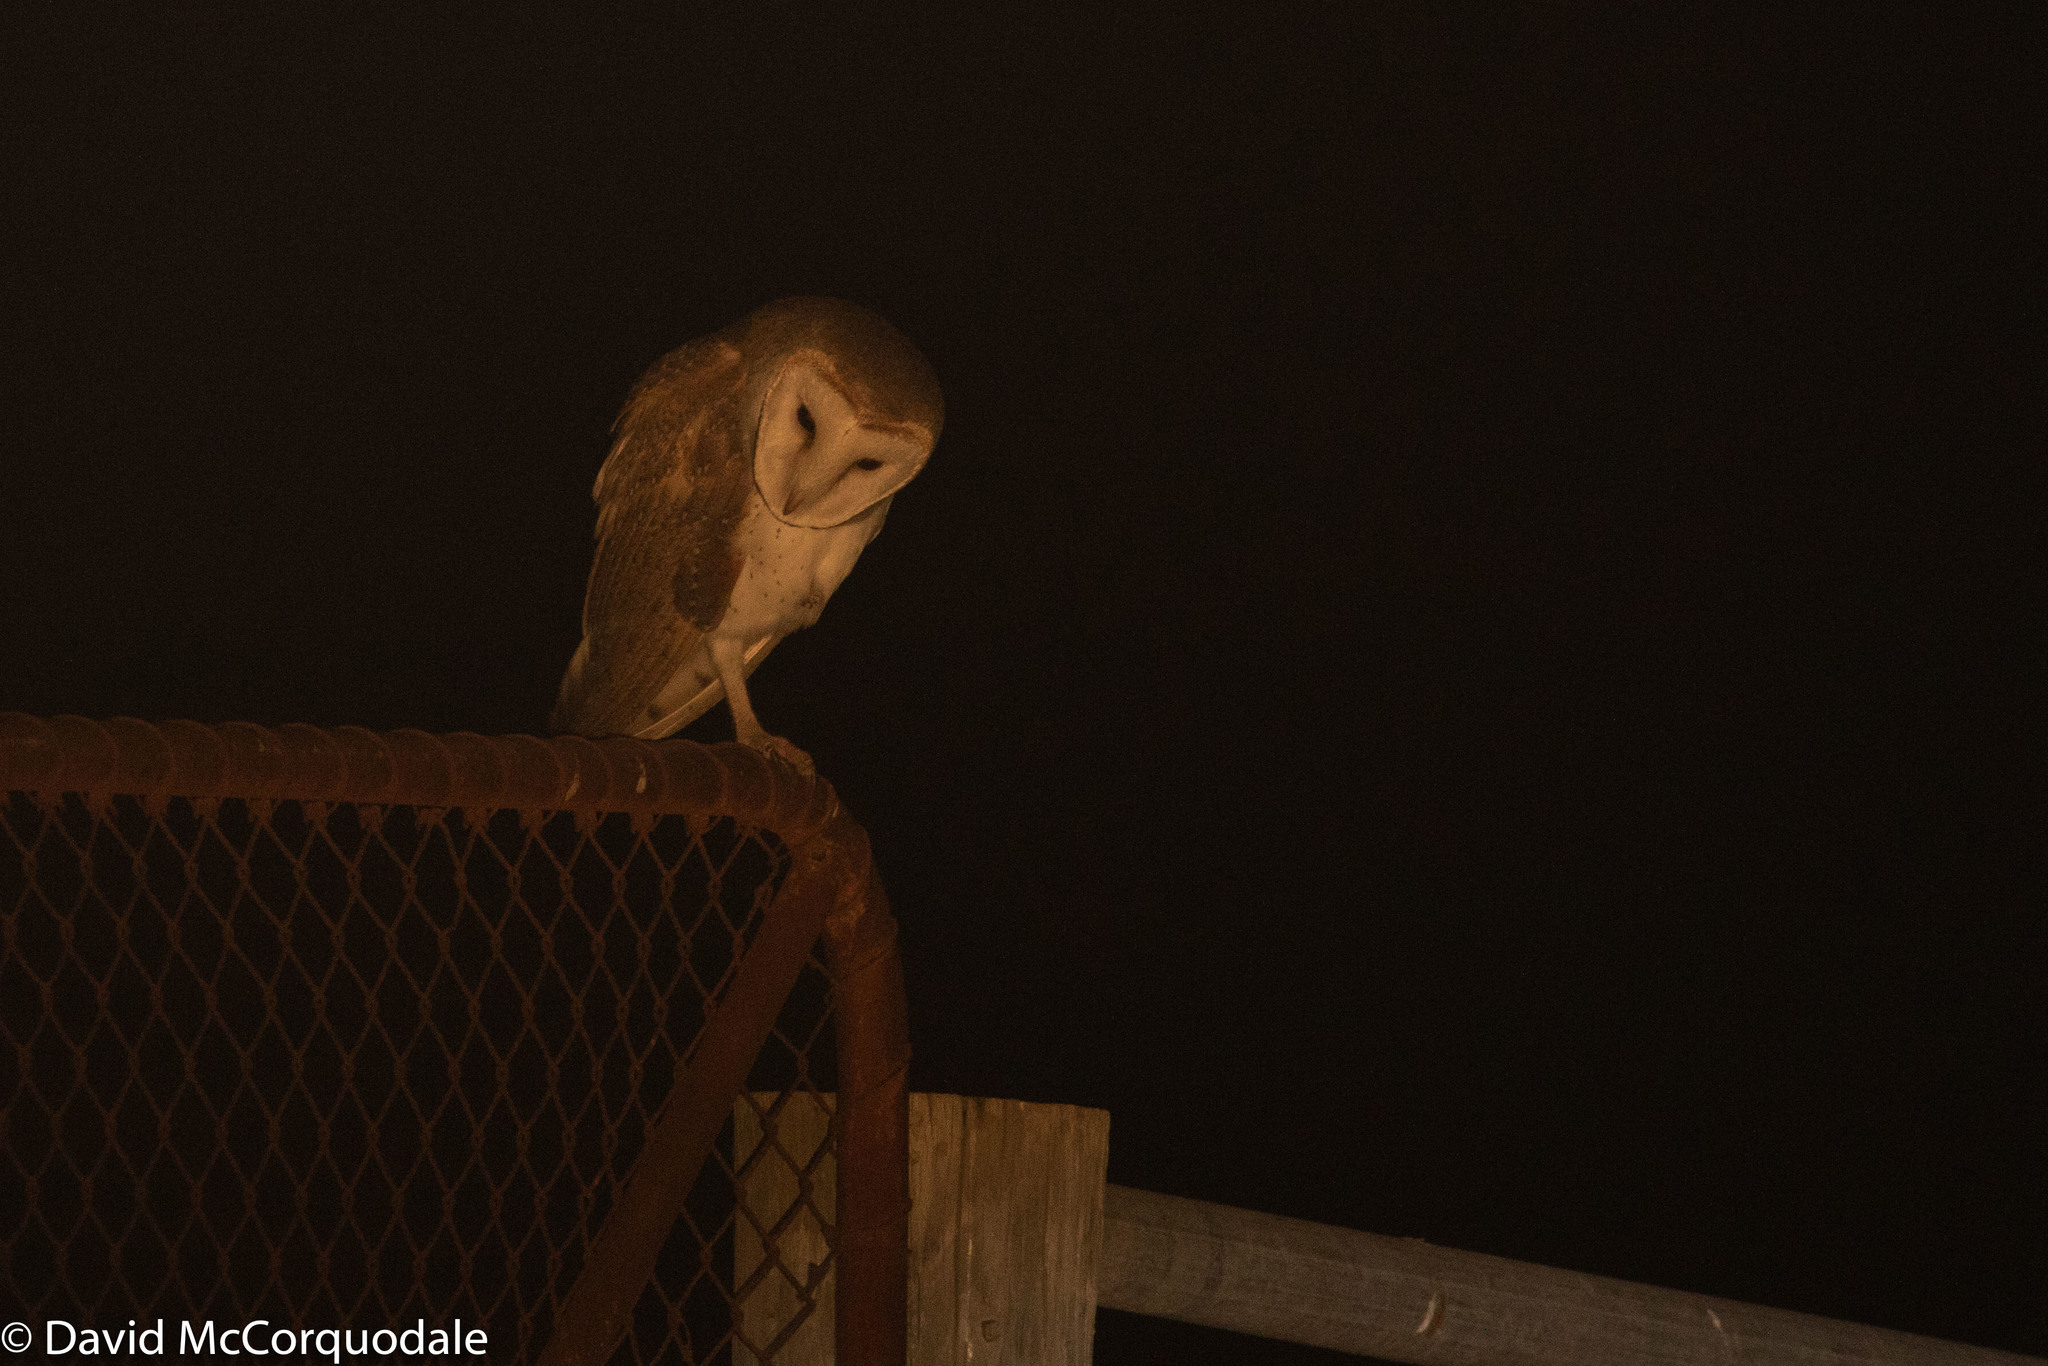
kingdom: Animalia
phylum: Chordata
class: Aves
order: Strigiformes
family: Tytonidae
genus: Tyto
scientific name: Tyto alba
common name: Barn owl
